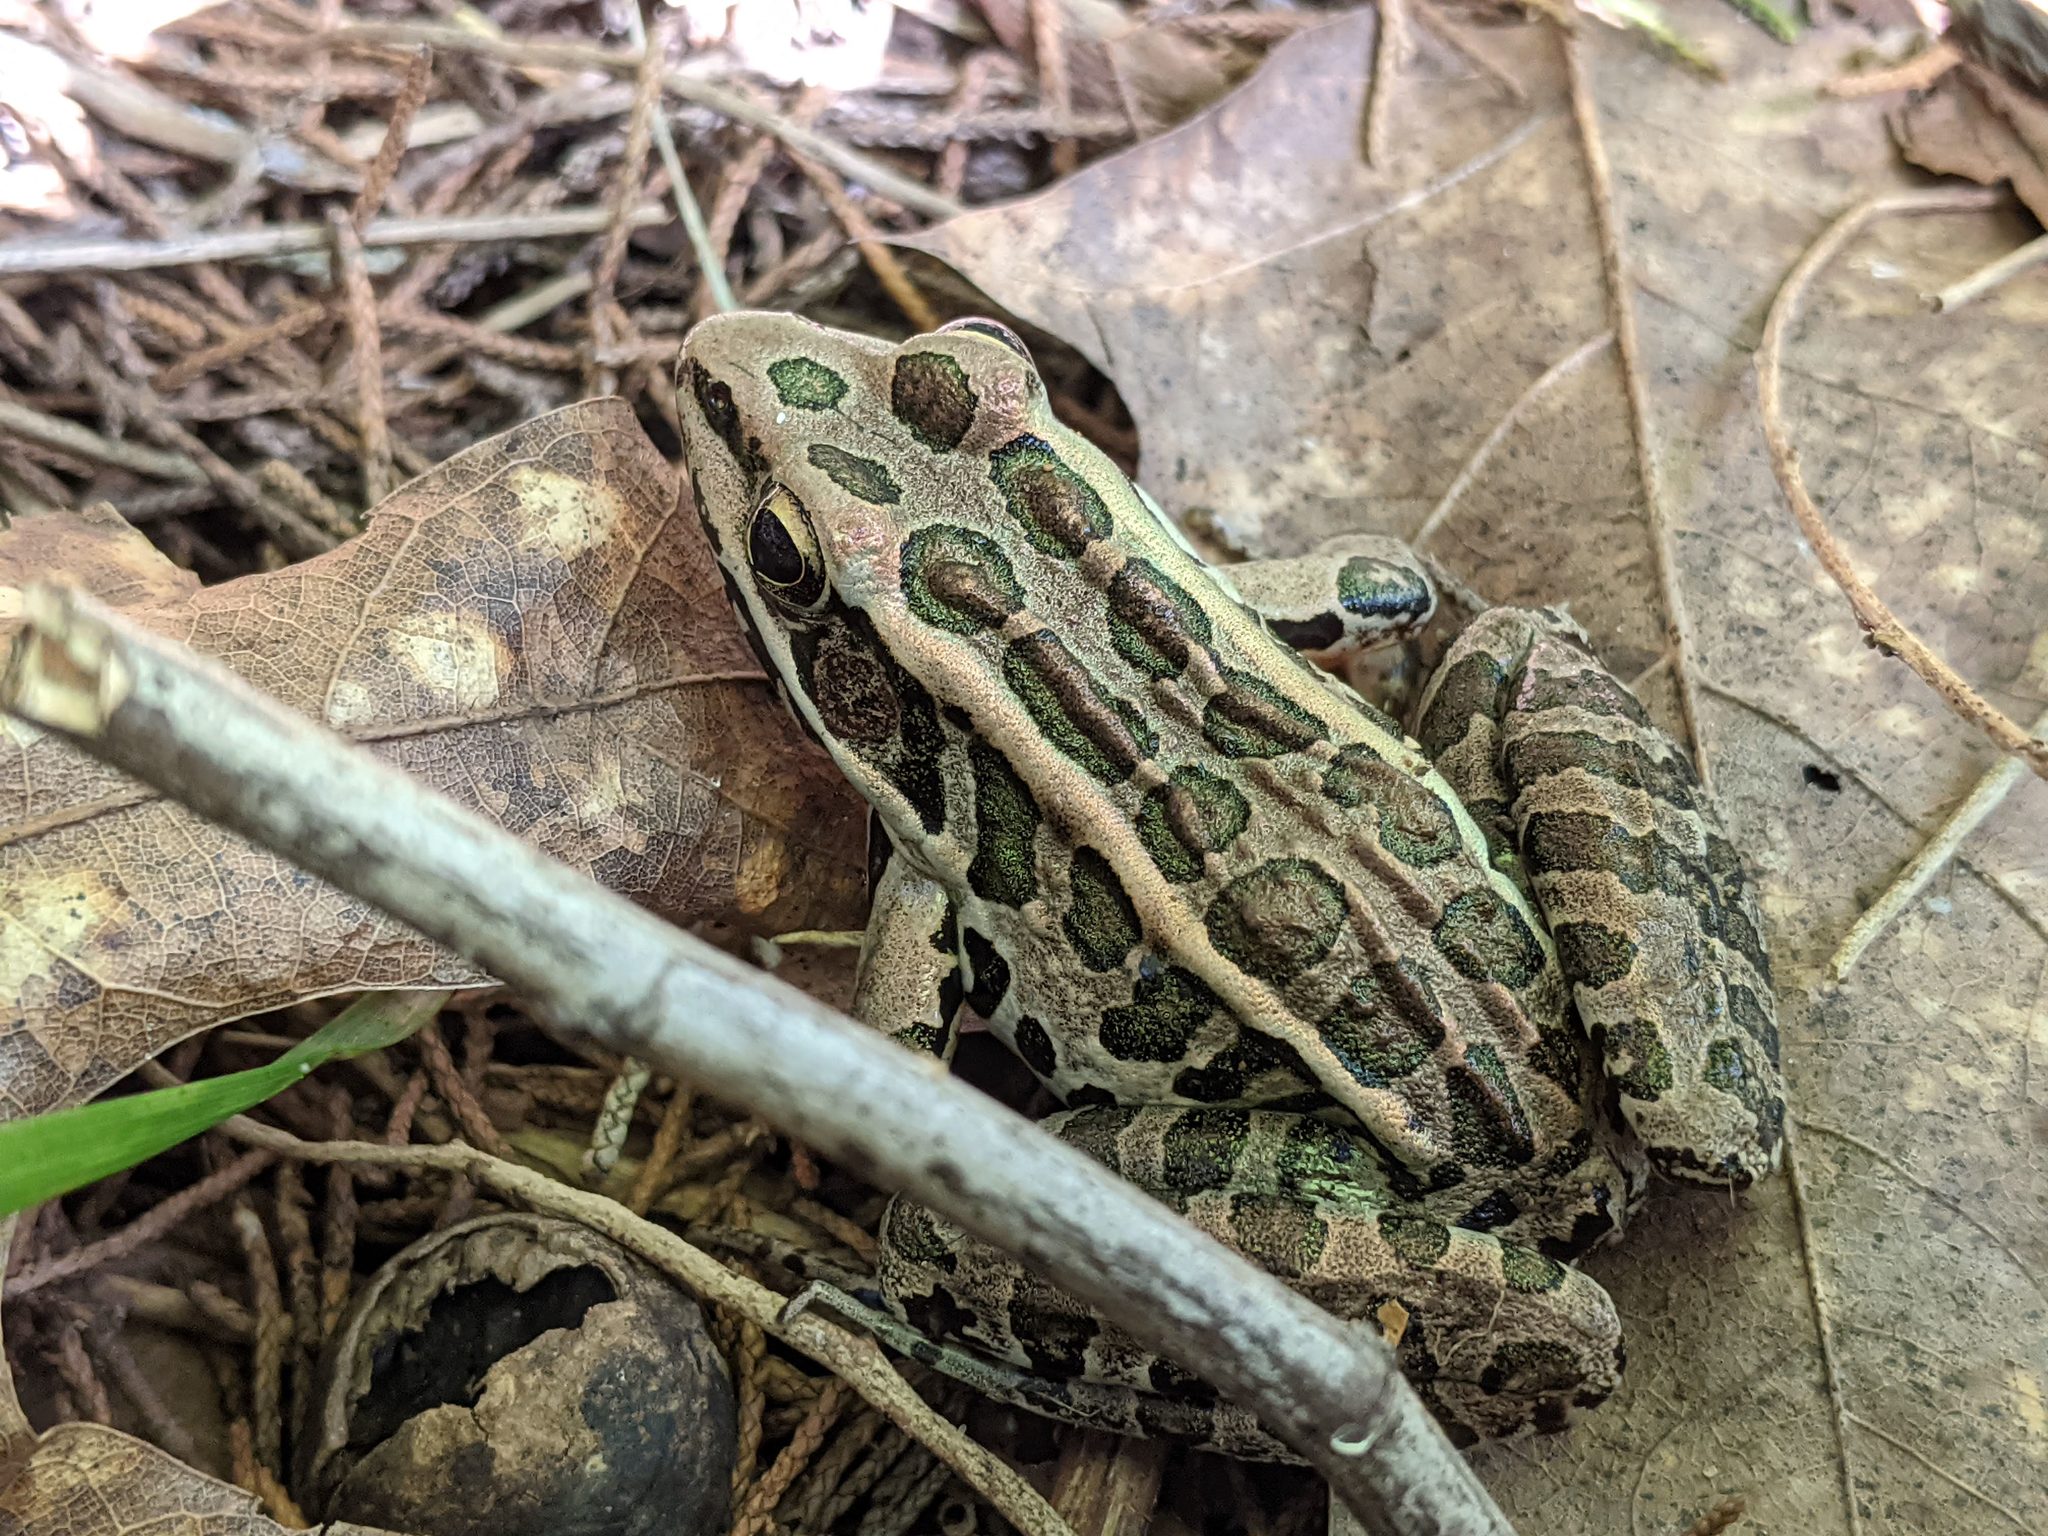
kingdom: Animalia
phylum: Chordata
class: Amphibia
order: Anura
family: Ranidae
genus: Lithobates
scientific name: Lithobates palustris
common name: Pickerel frog
